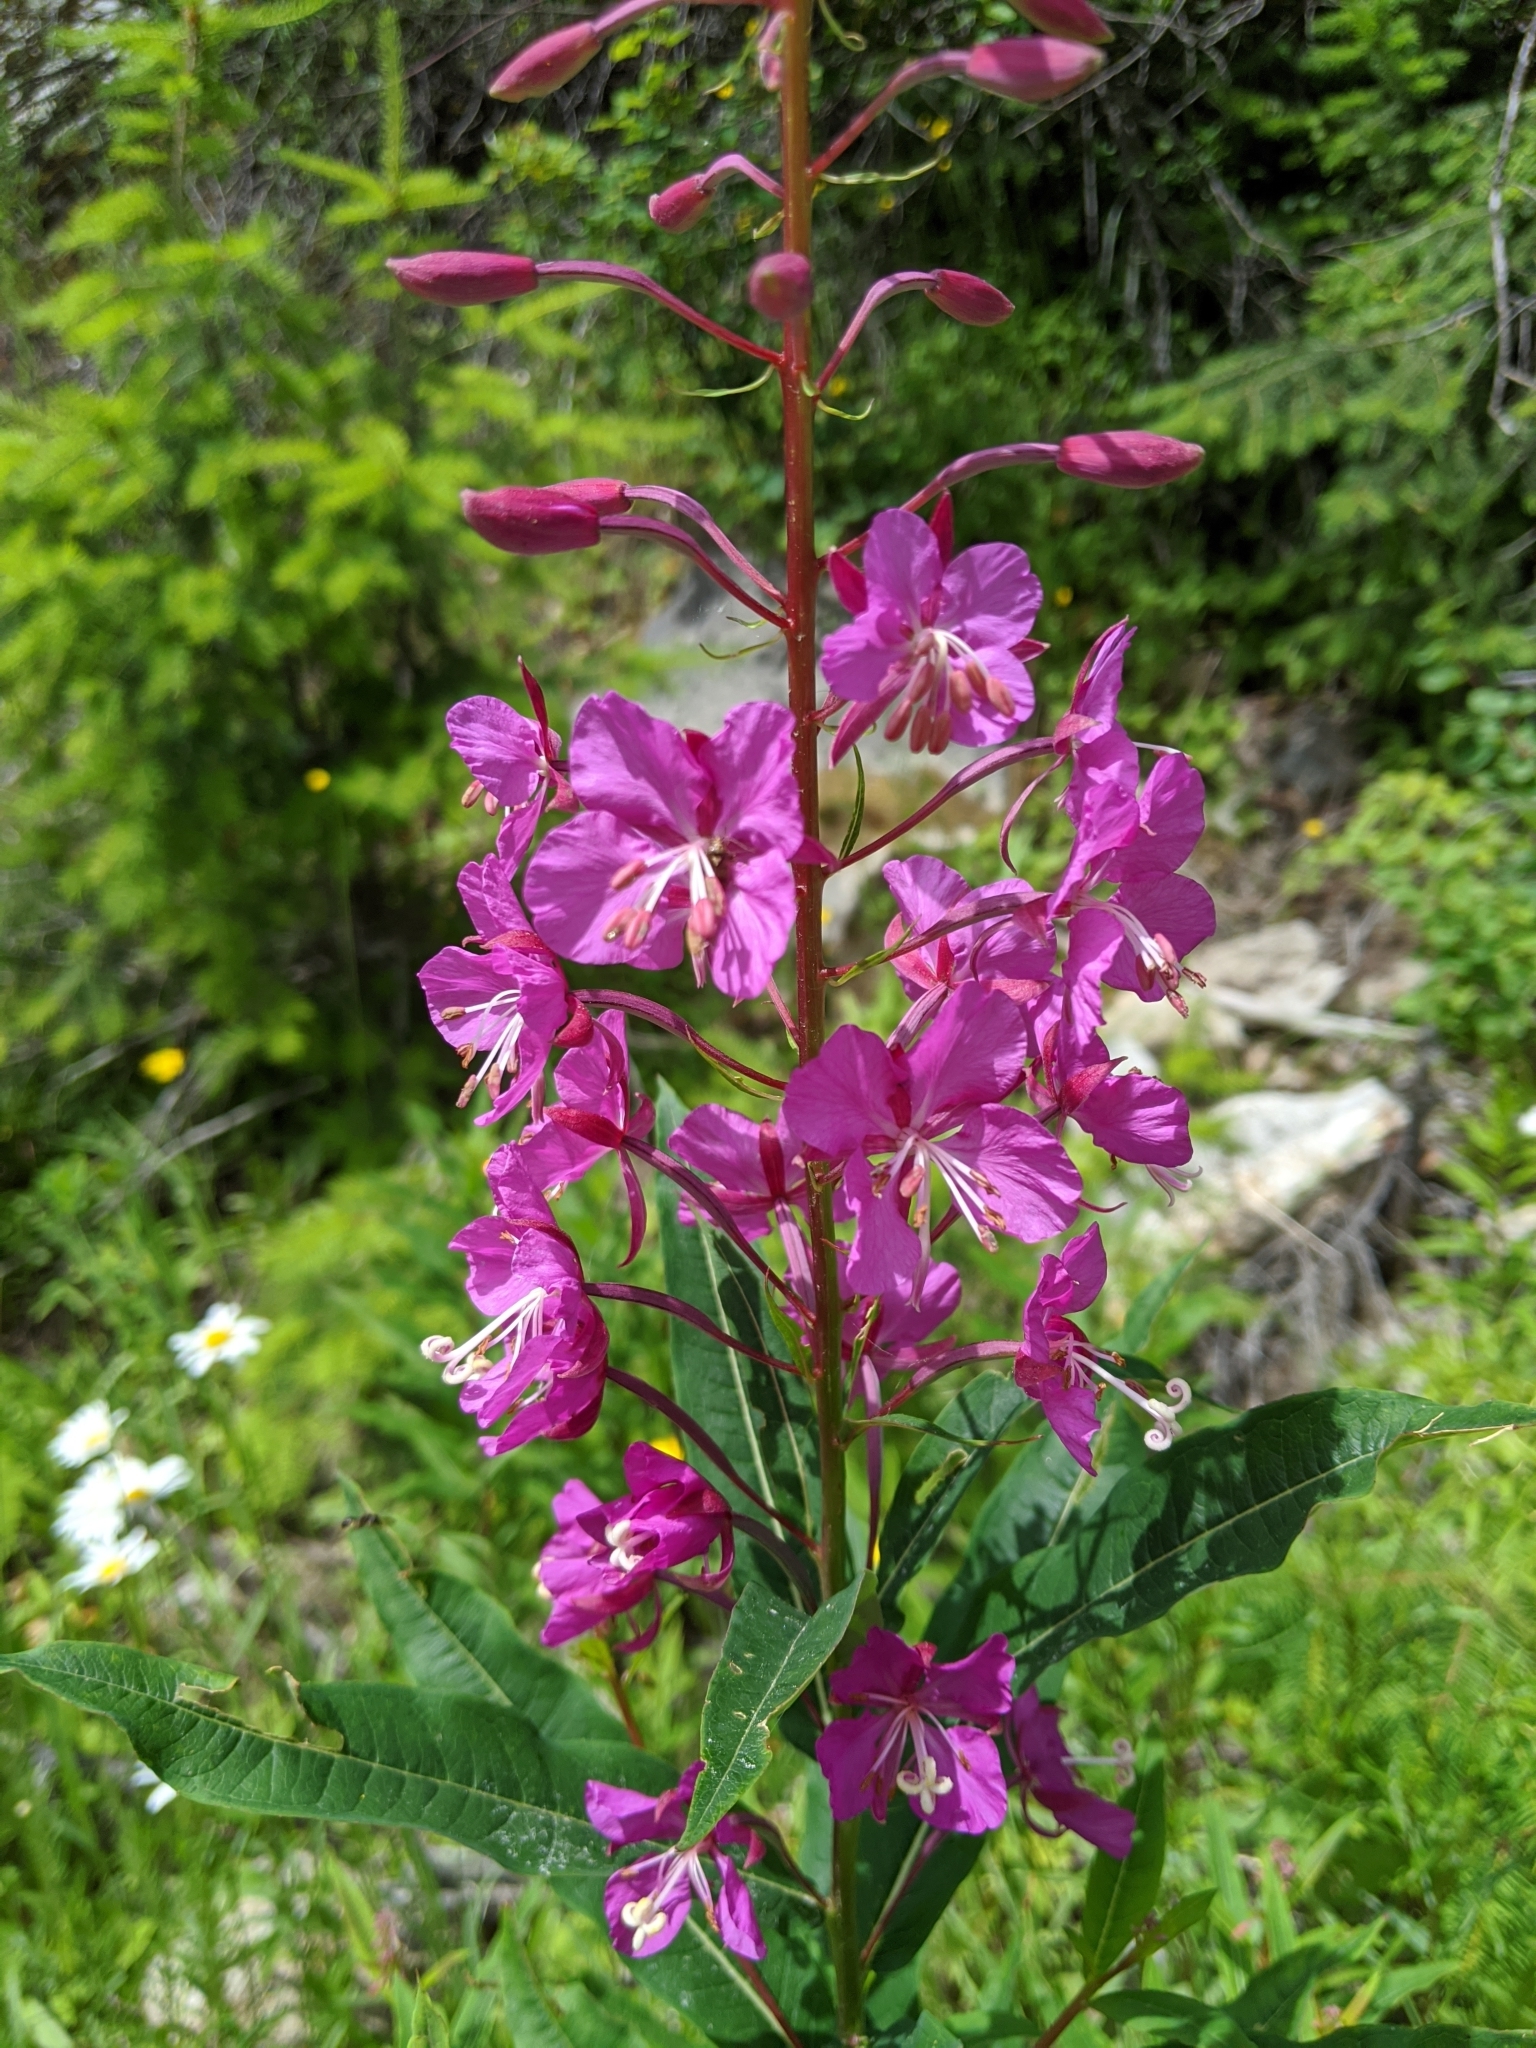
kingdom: Plantae
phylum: Tracheophyta
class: Magnoliopsida
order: Myrtales
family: Onagraceae
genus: Chamaenerion
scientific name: Chamaenerion angustifolium
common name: Fireweed
